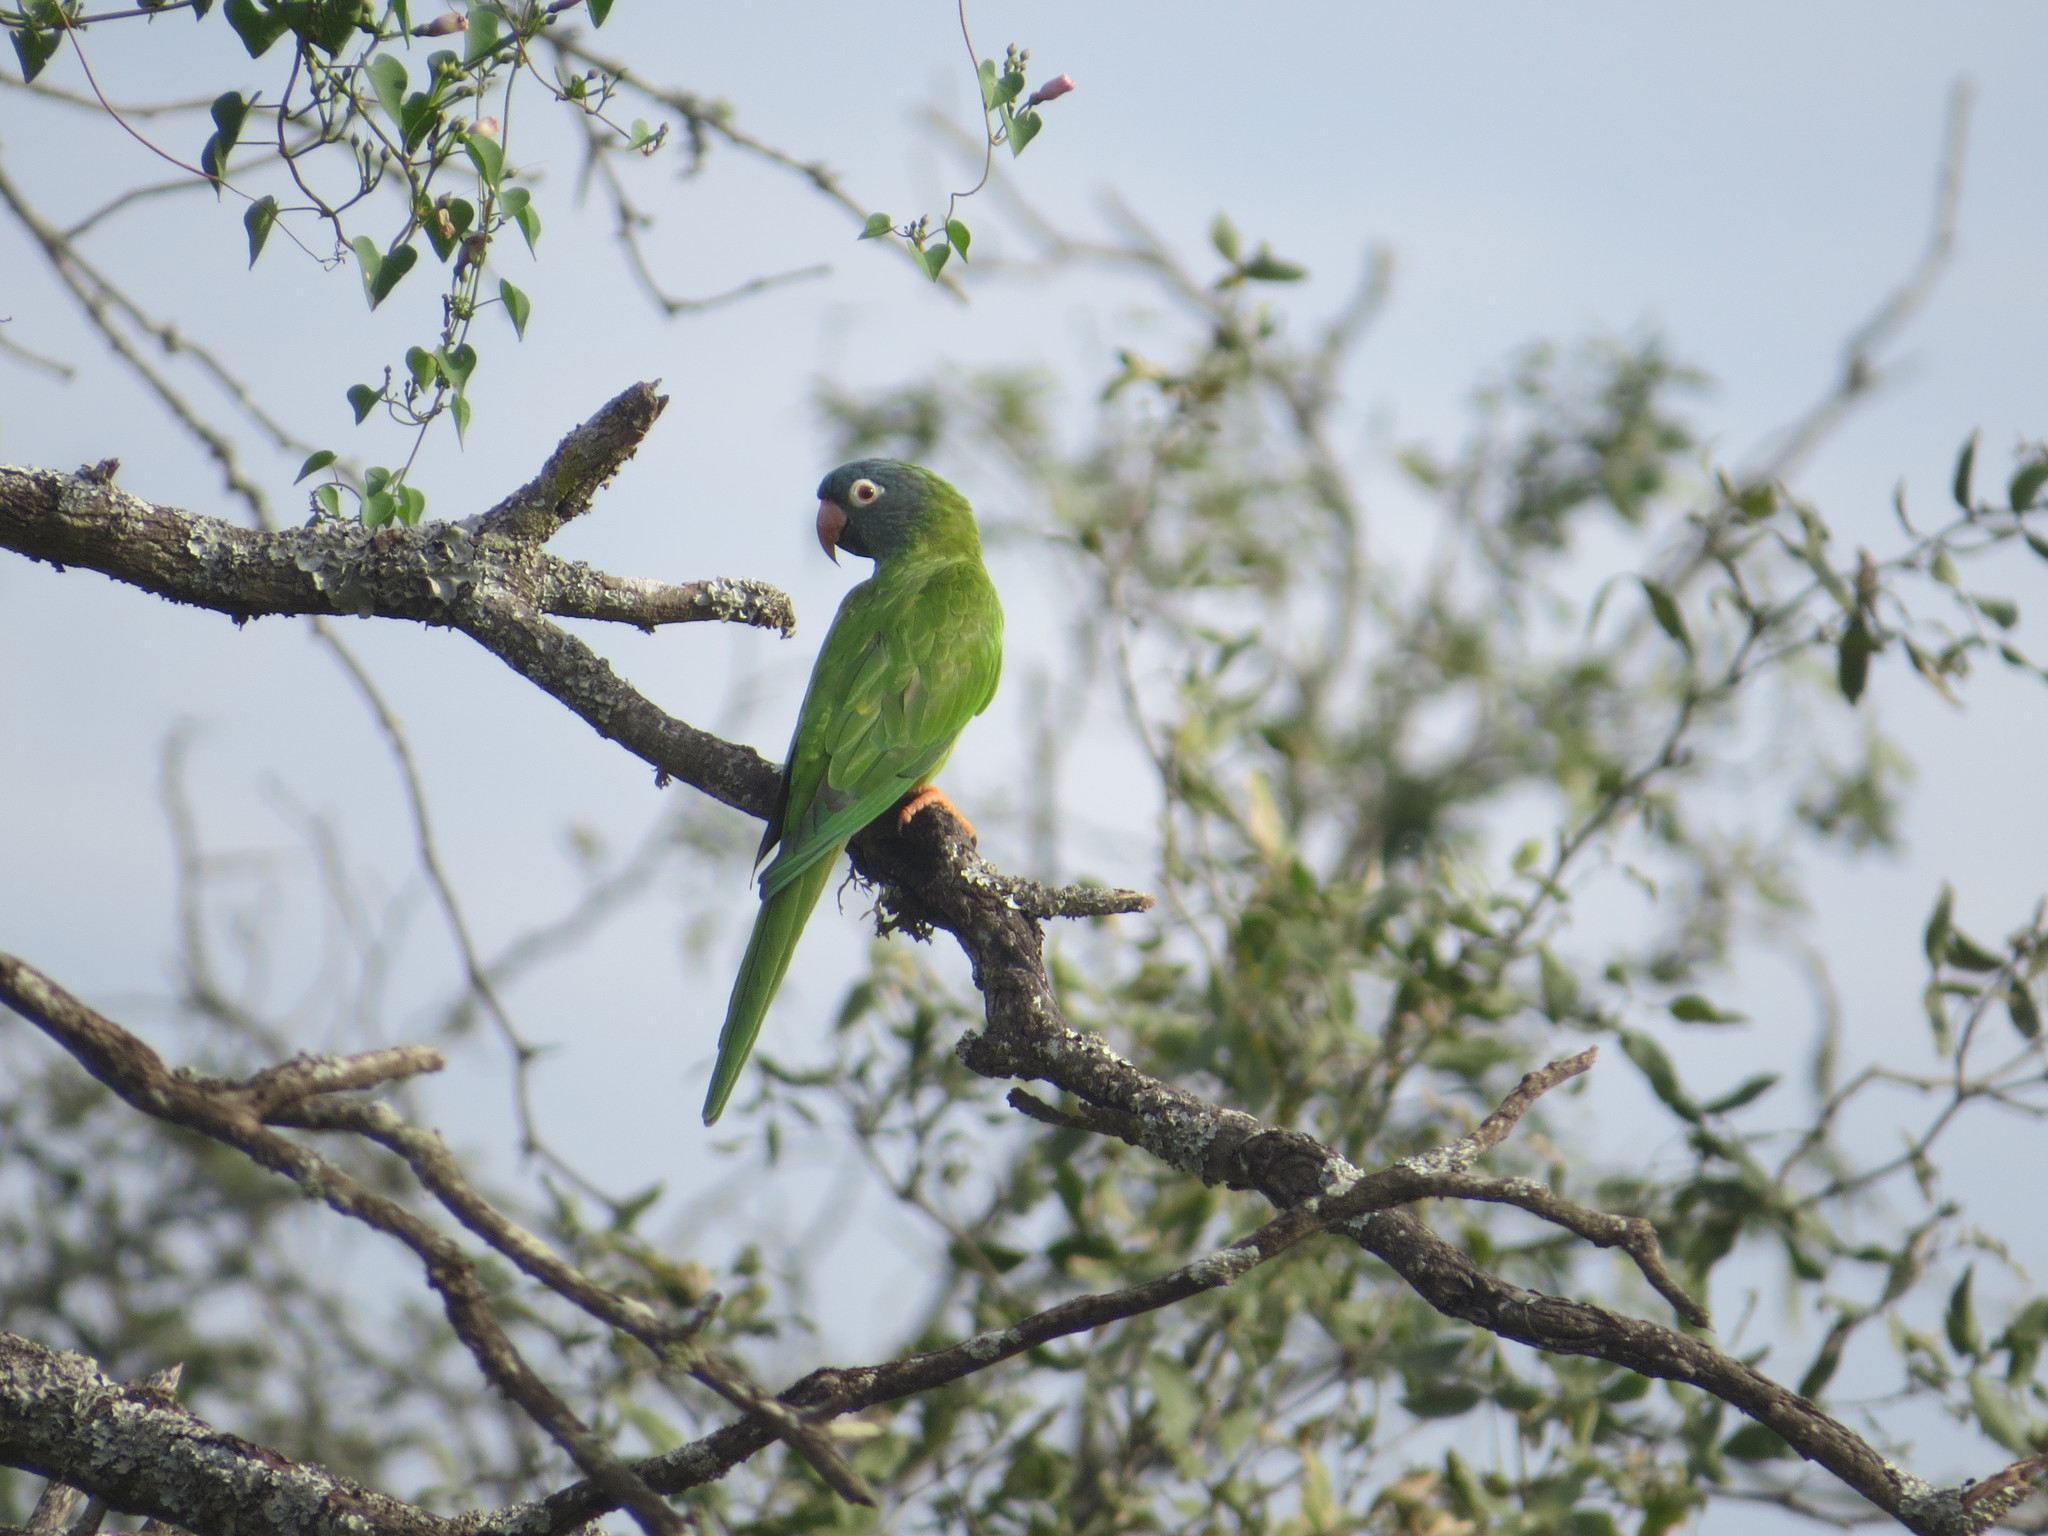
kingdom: Animalia
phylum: Chordata
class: Aves
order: Psittaciformes
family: Psittacidae
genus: Aratinga
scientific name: Aratinga acuticaudata
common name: Blue-crowned parakeet
